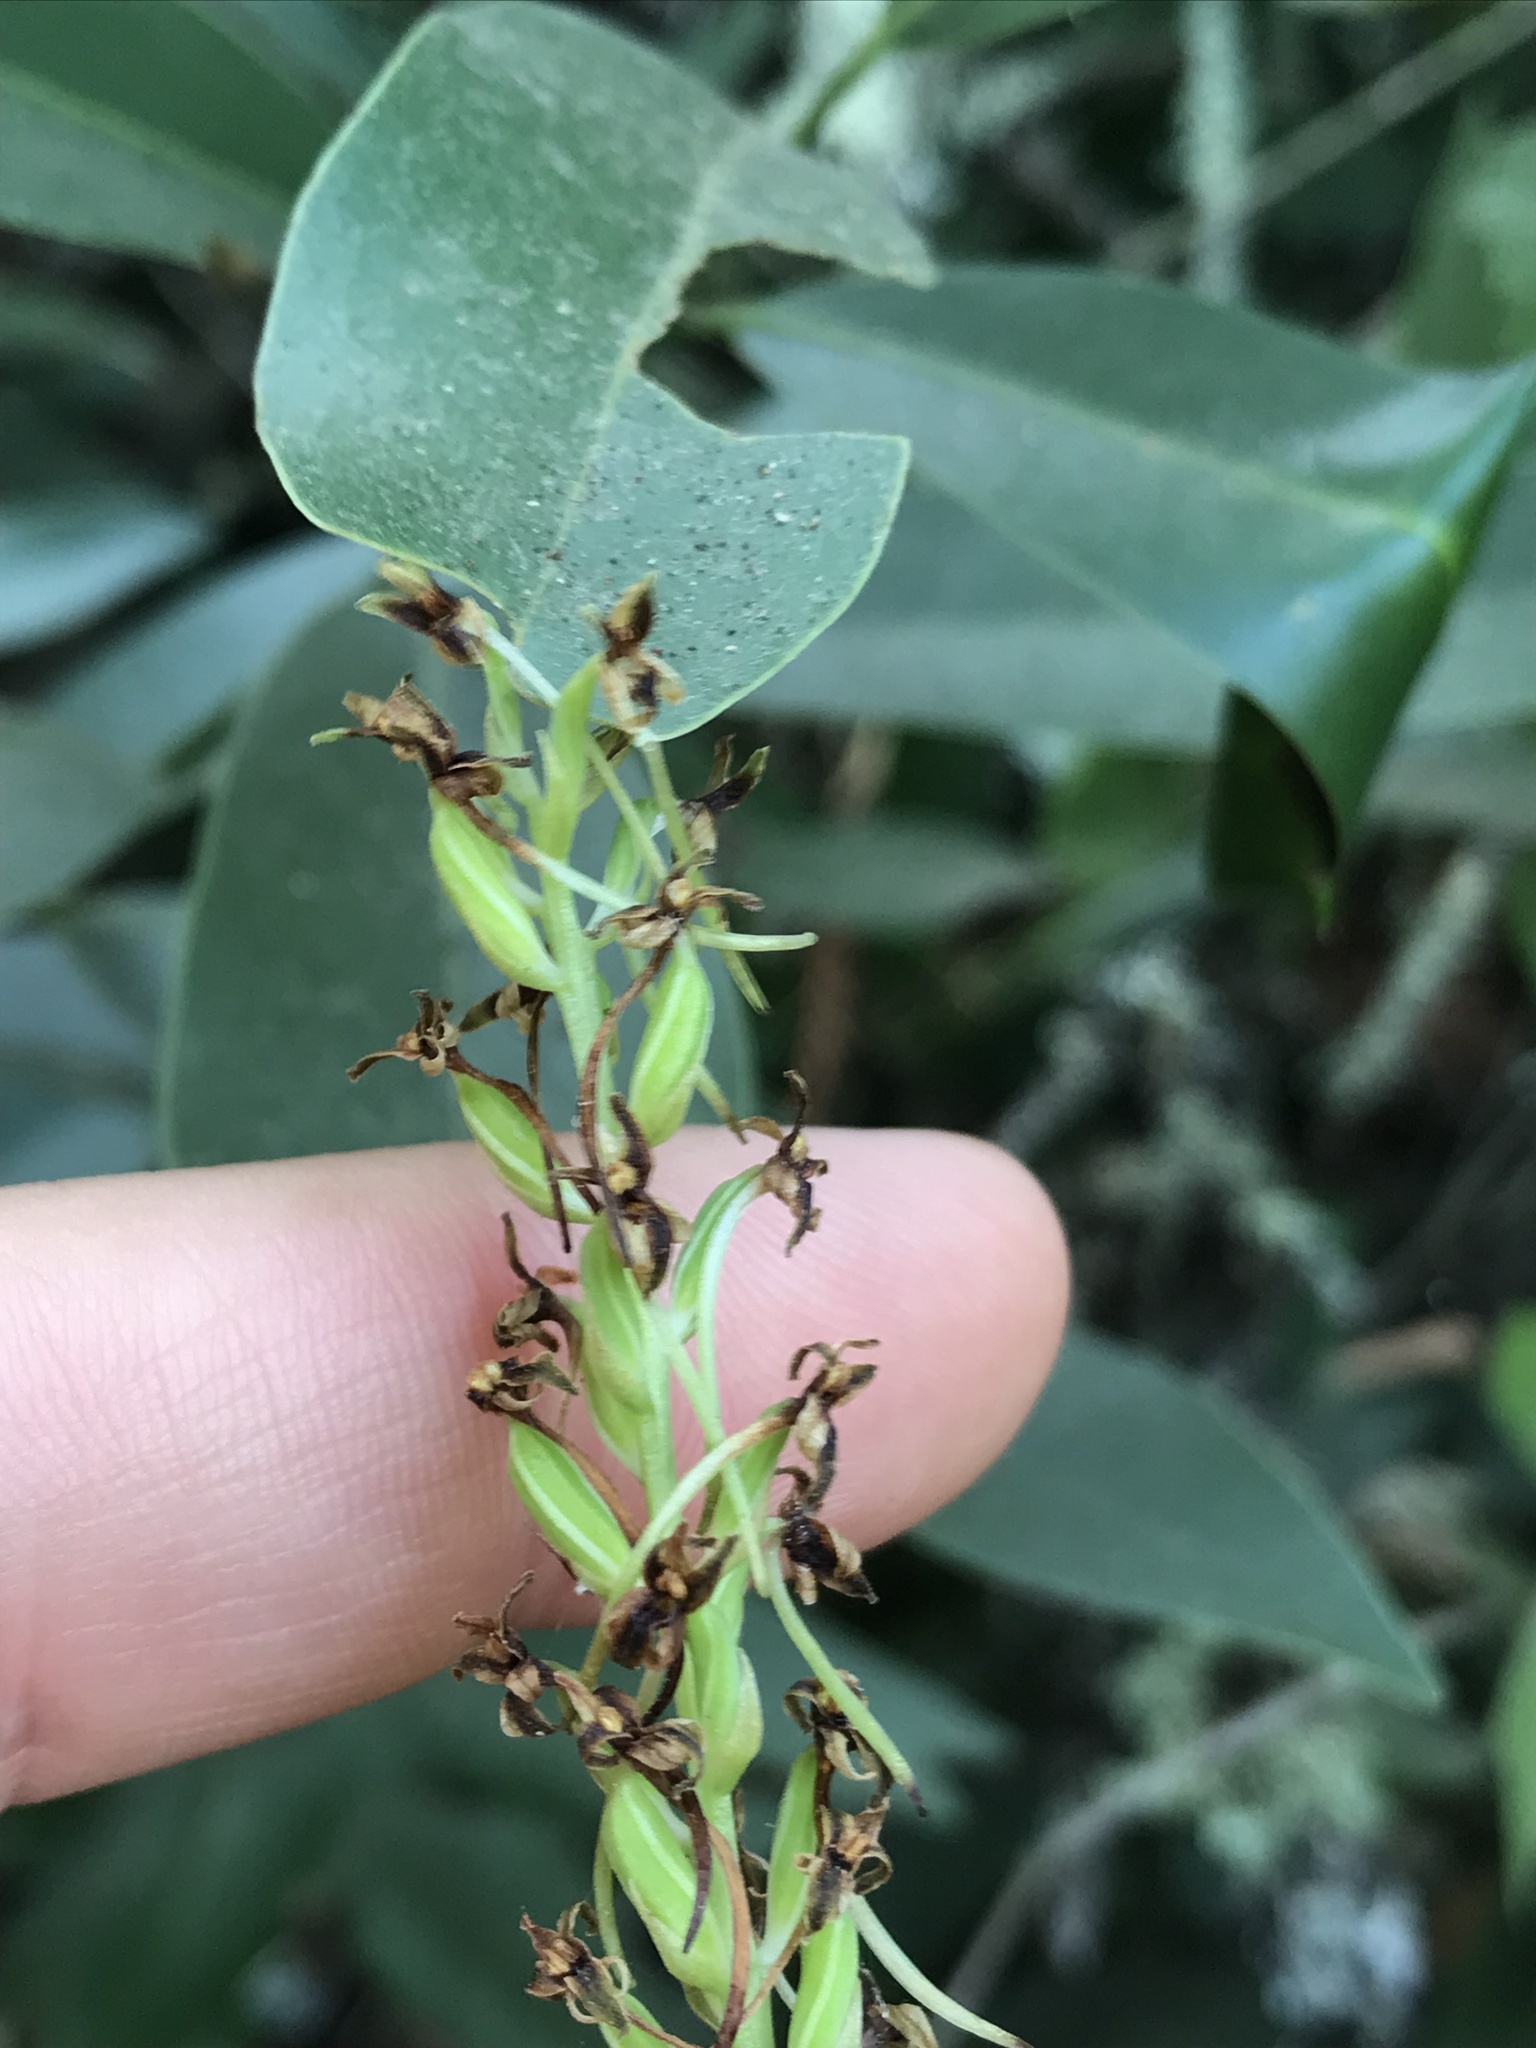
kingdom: Plantae
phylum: Tracheophyta
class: Liliopsida
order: Asparagales
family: Orchidaceae
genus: Platanthera
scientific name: Platanthera elongata
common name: Dense-flowered rein orchid
